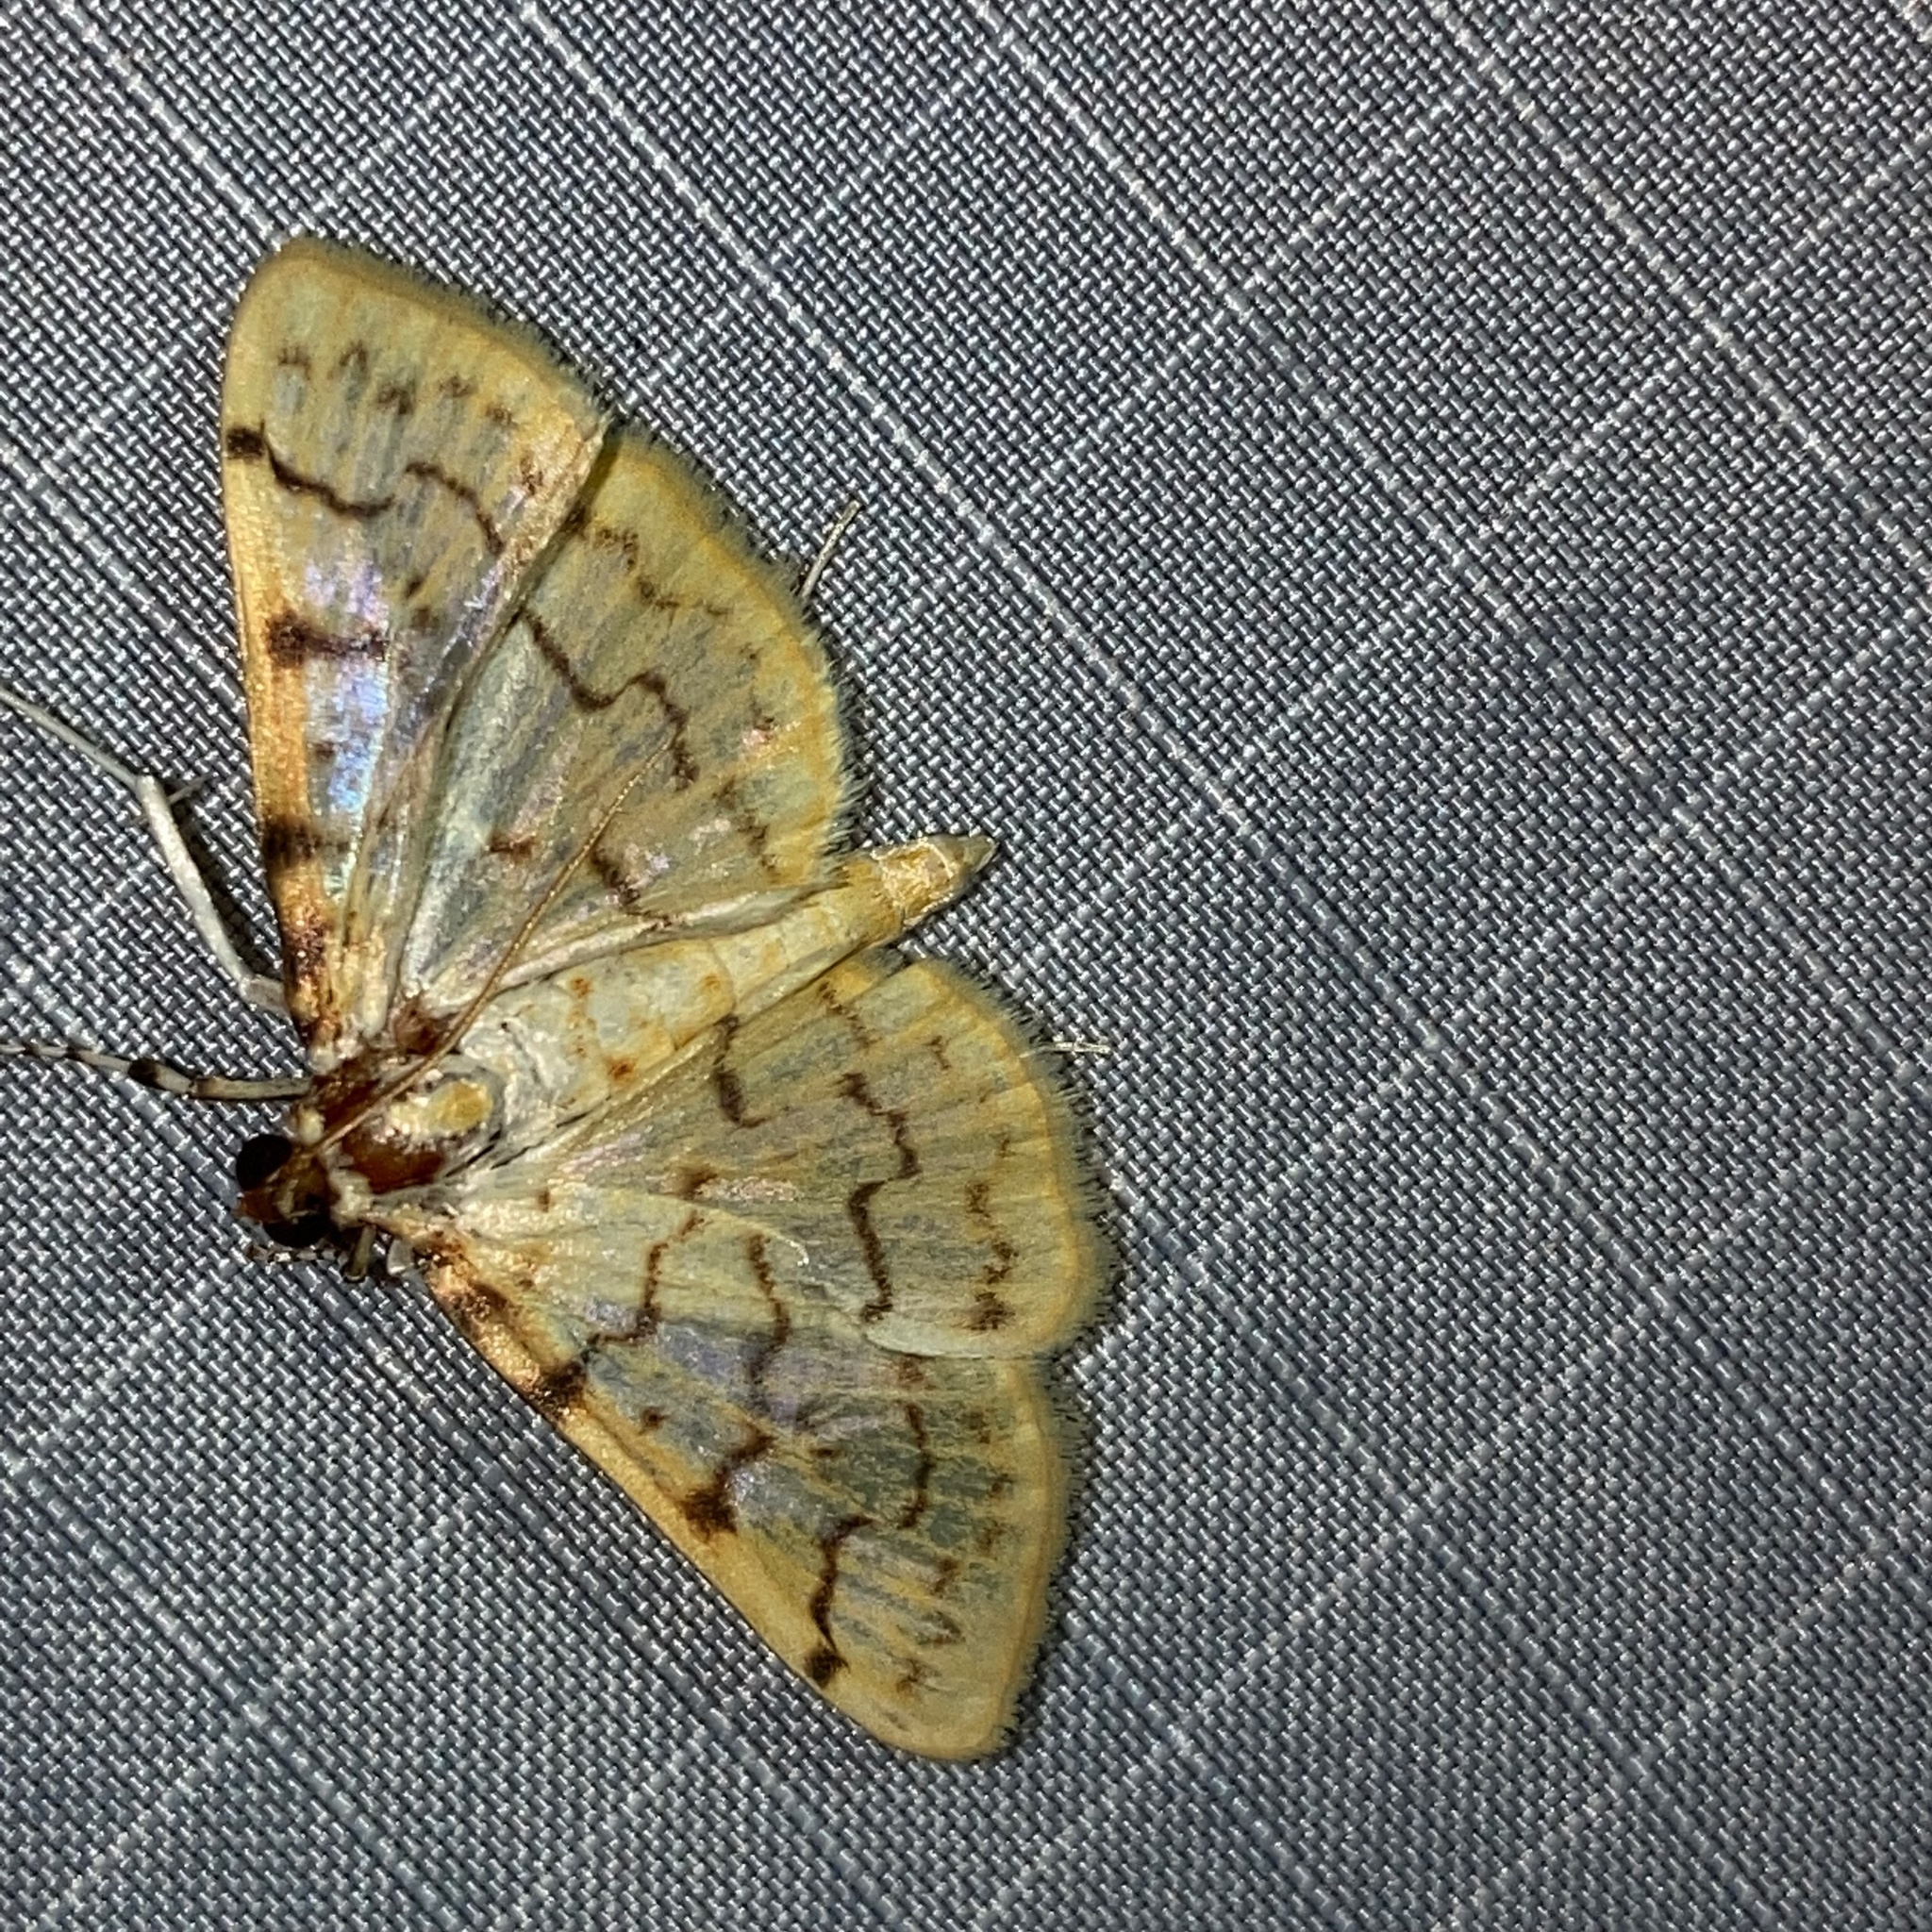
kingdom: Animalia
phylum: Arthropoda
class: Insecta
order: Lepidoptera
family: Crambidae
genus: Polygrammodes
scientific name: Polygrammodes flavidalis
